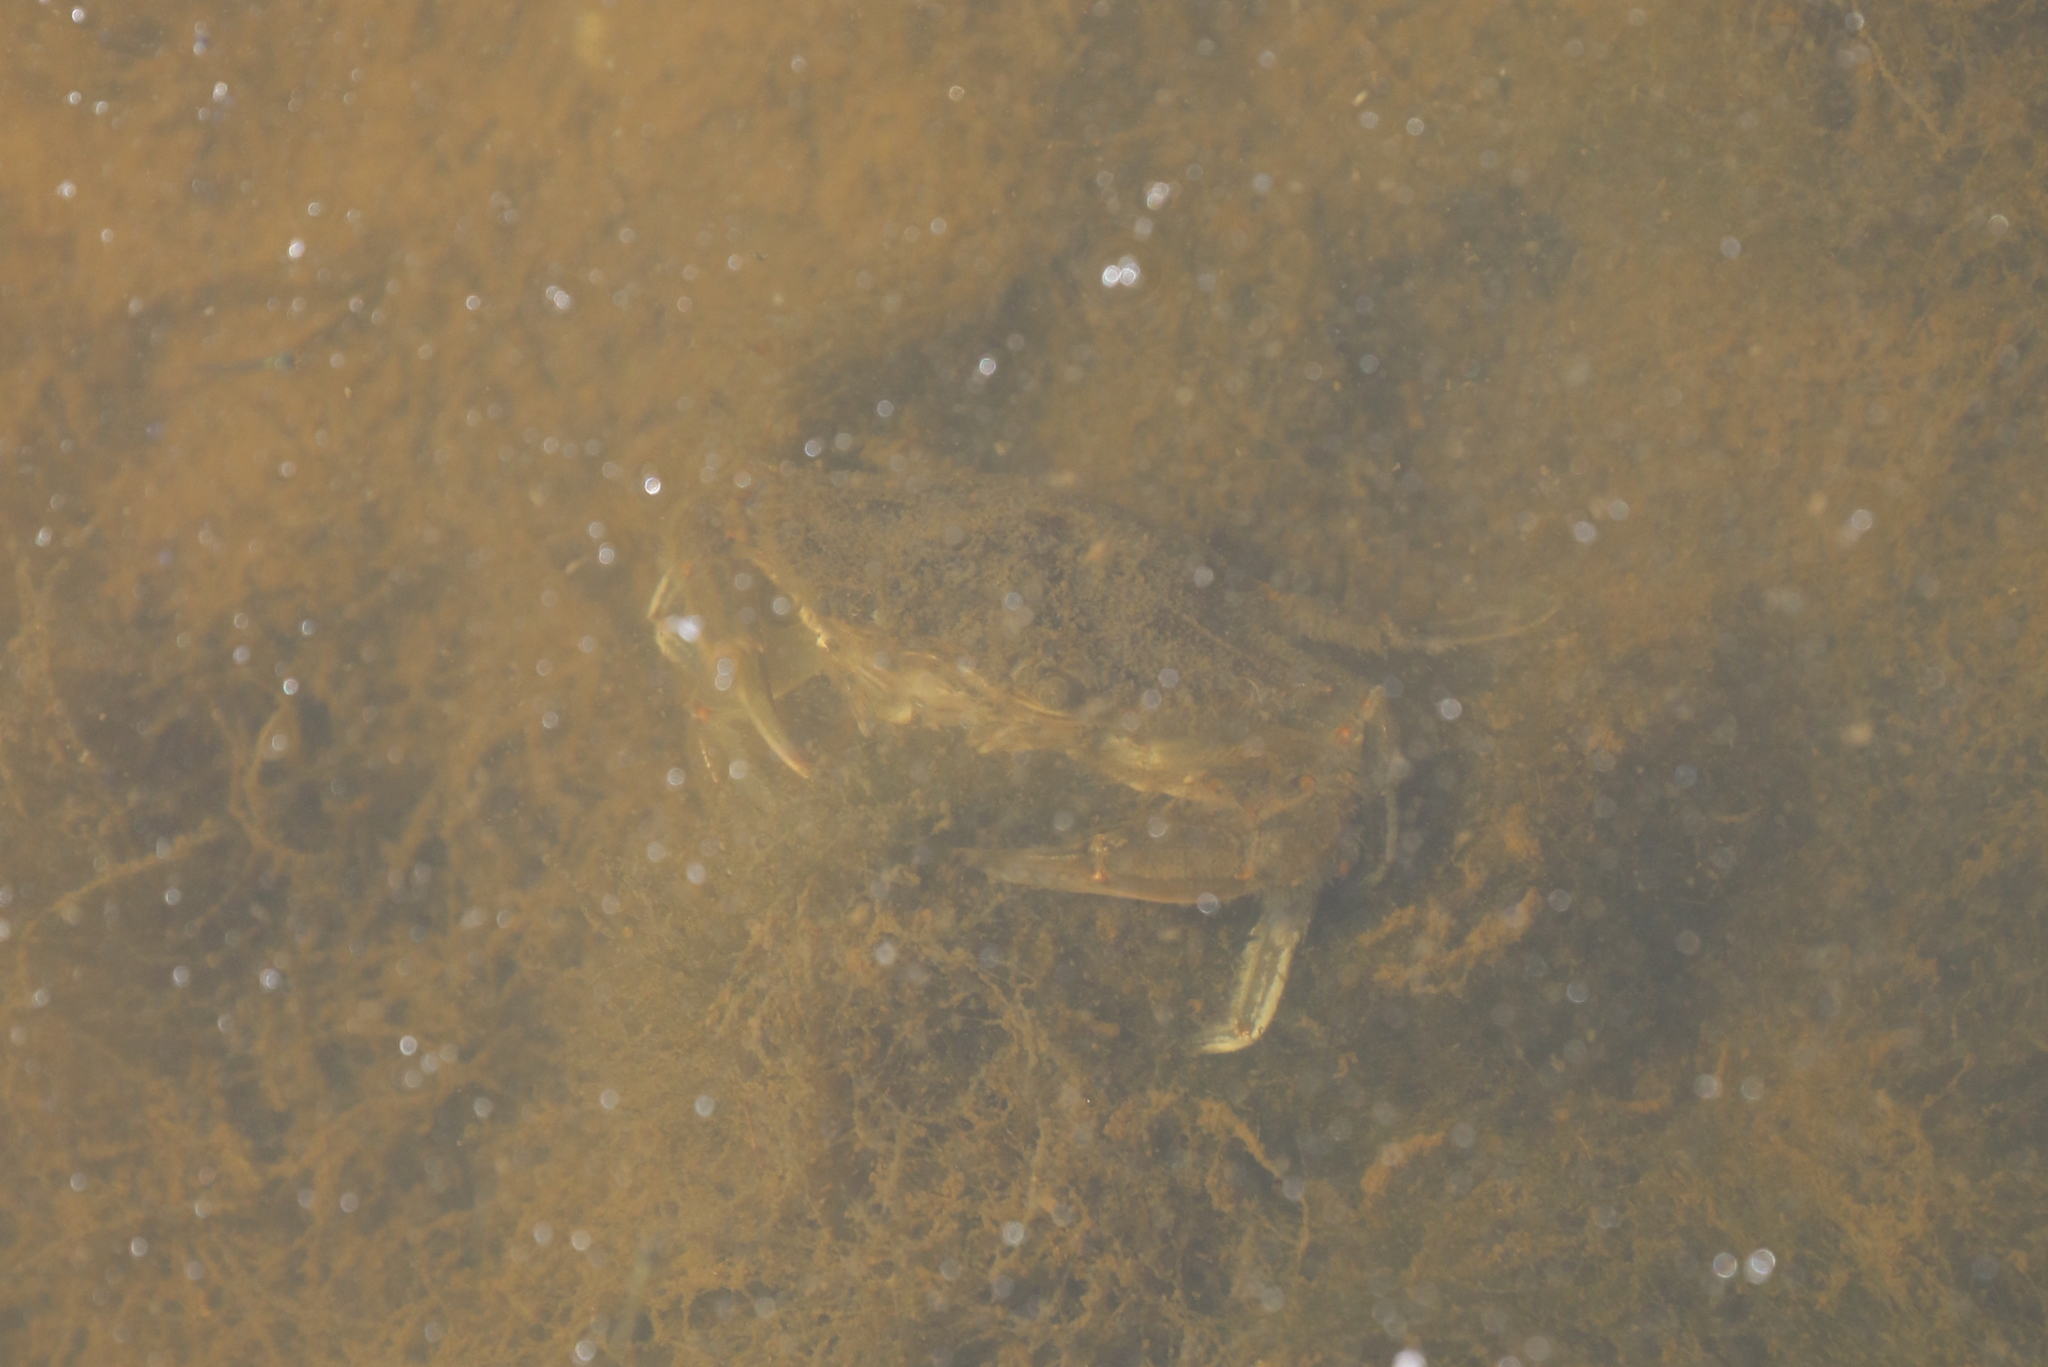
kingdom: Animalia
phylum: Arthropoda
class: Malacostraca
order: Decapoda
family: Portunidae
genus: Callinectes
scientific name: Callinectes sapidus
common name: Blue crab
